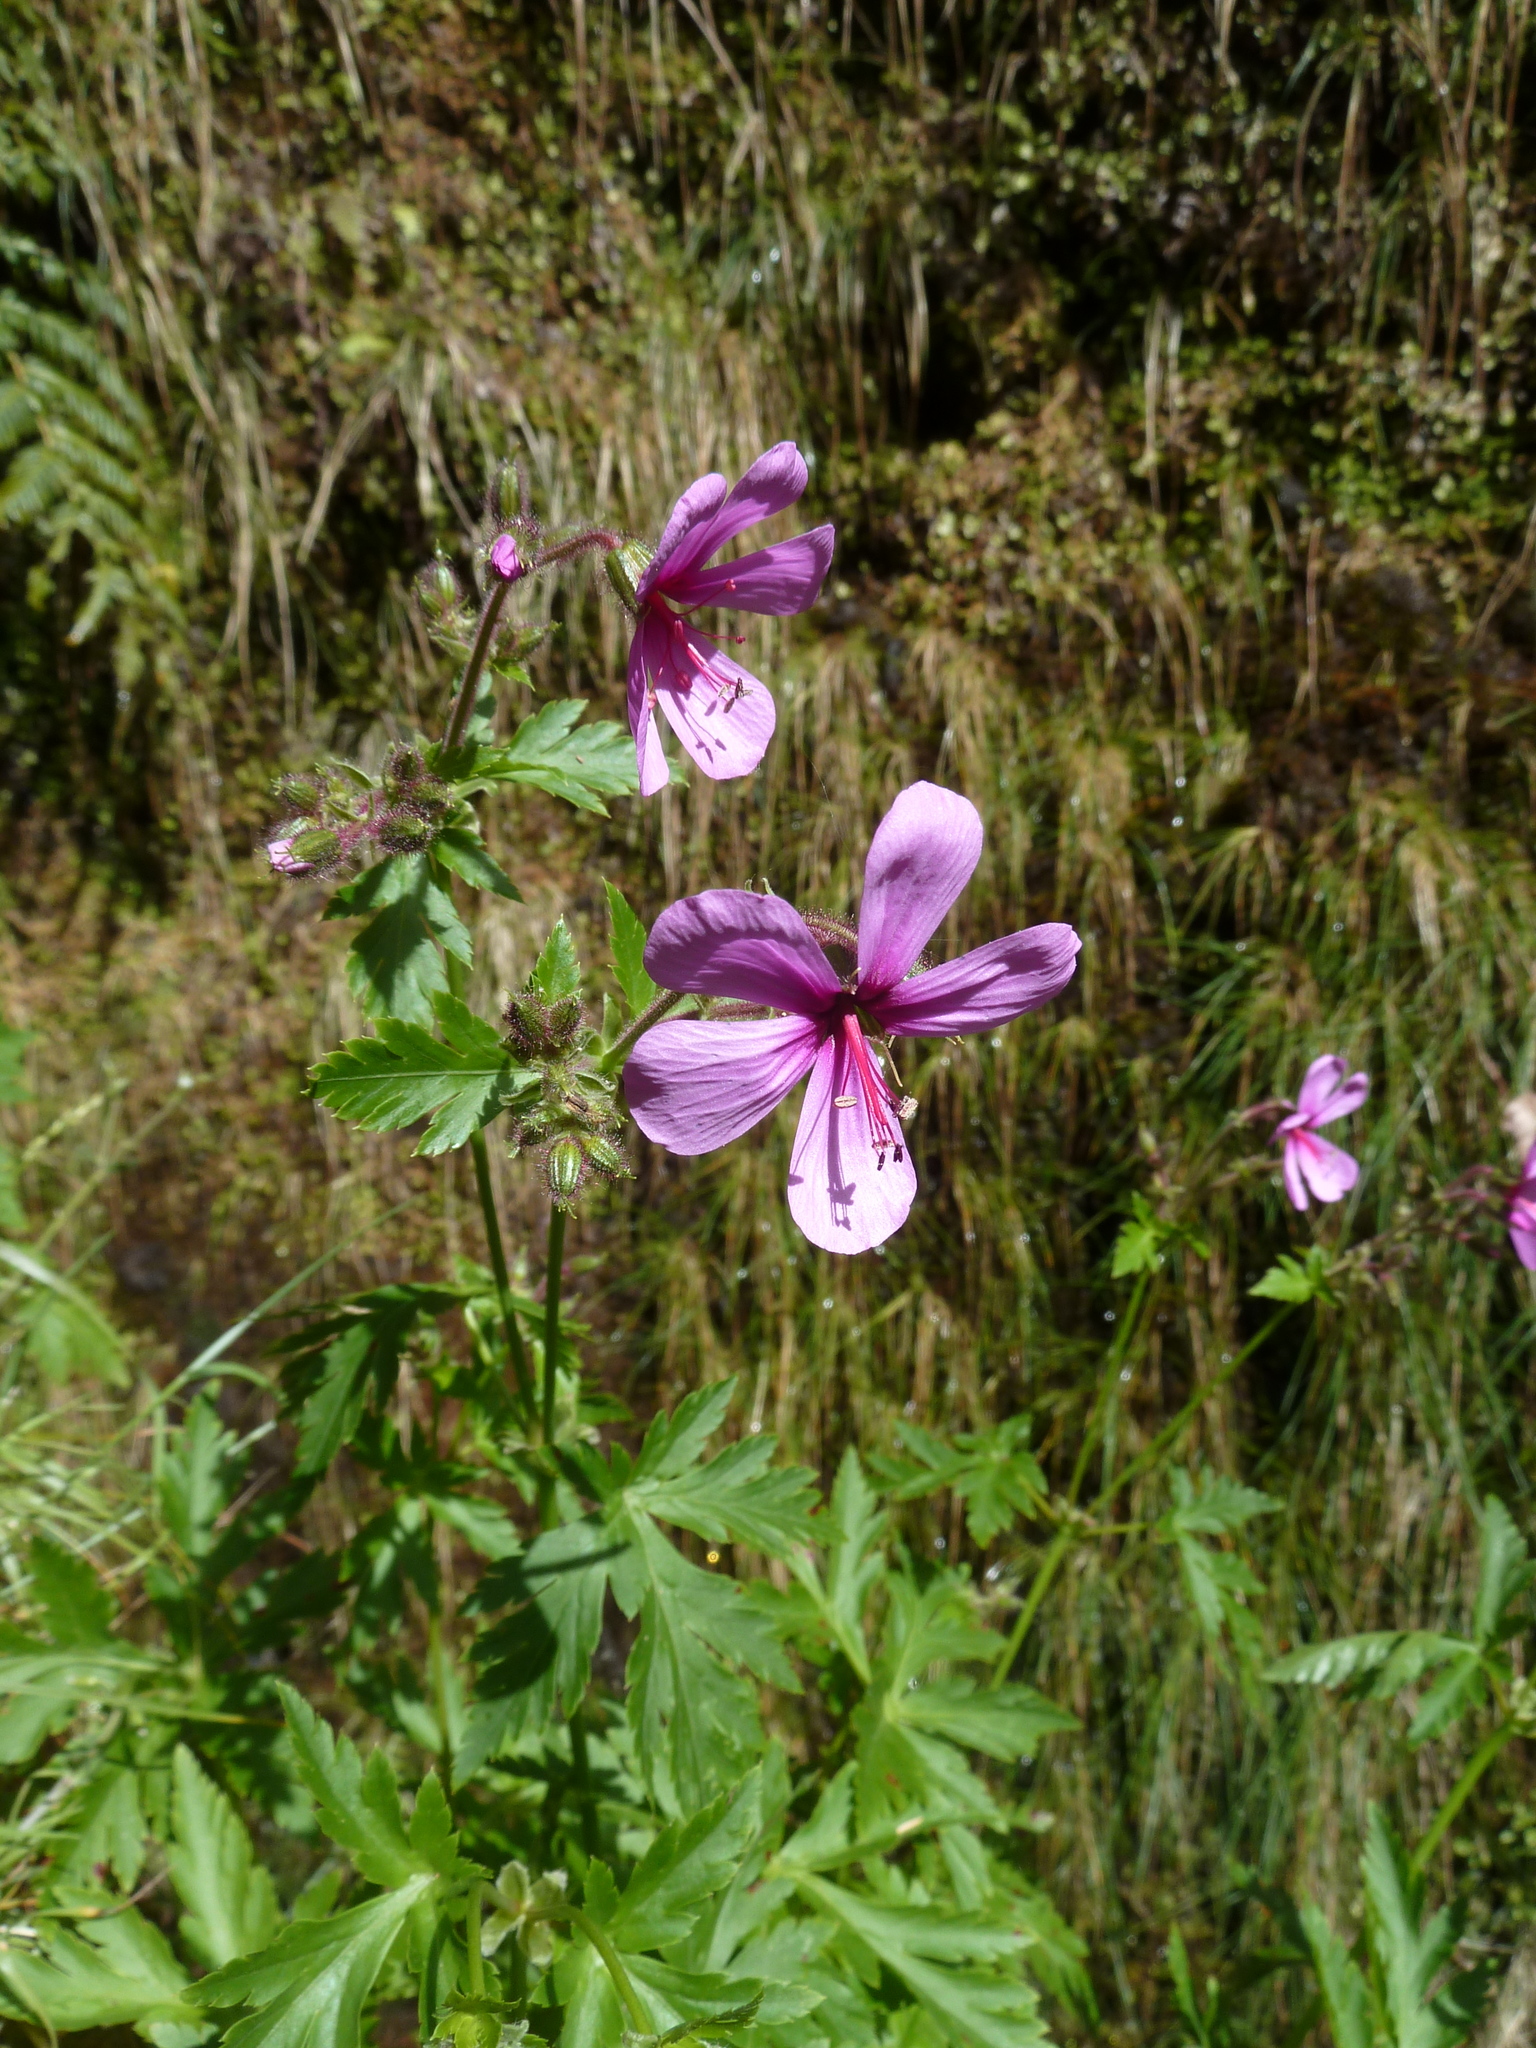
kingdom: Plantae
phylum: Tracheophyta
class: Magnoliopsida
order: Geraniales
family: Geraniaceae
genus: Geranium
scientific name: Geranium palmatum
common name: Canary island geranium
